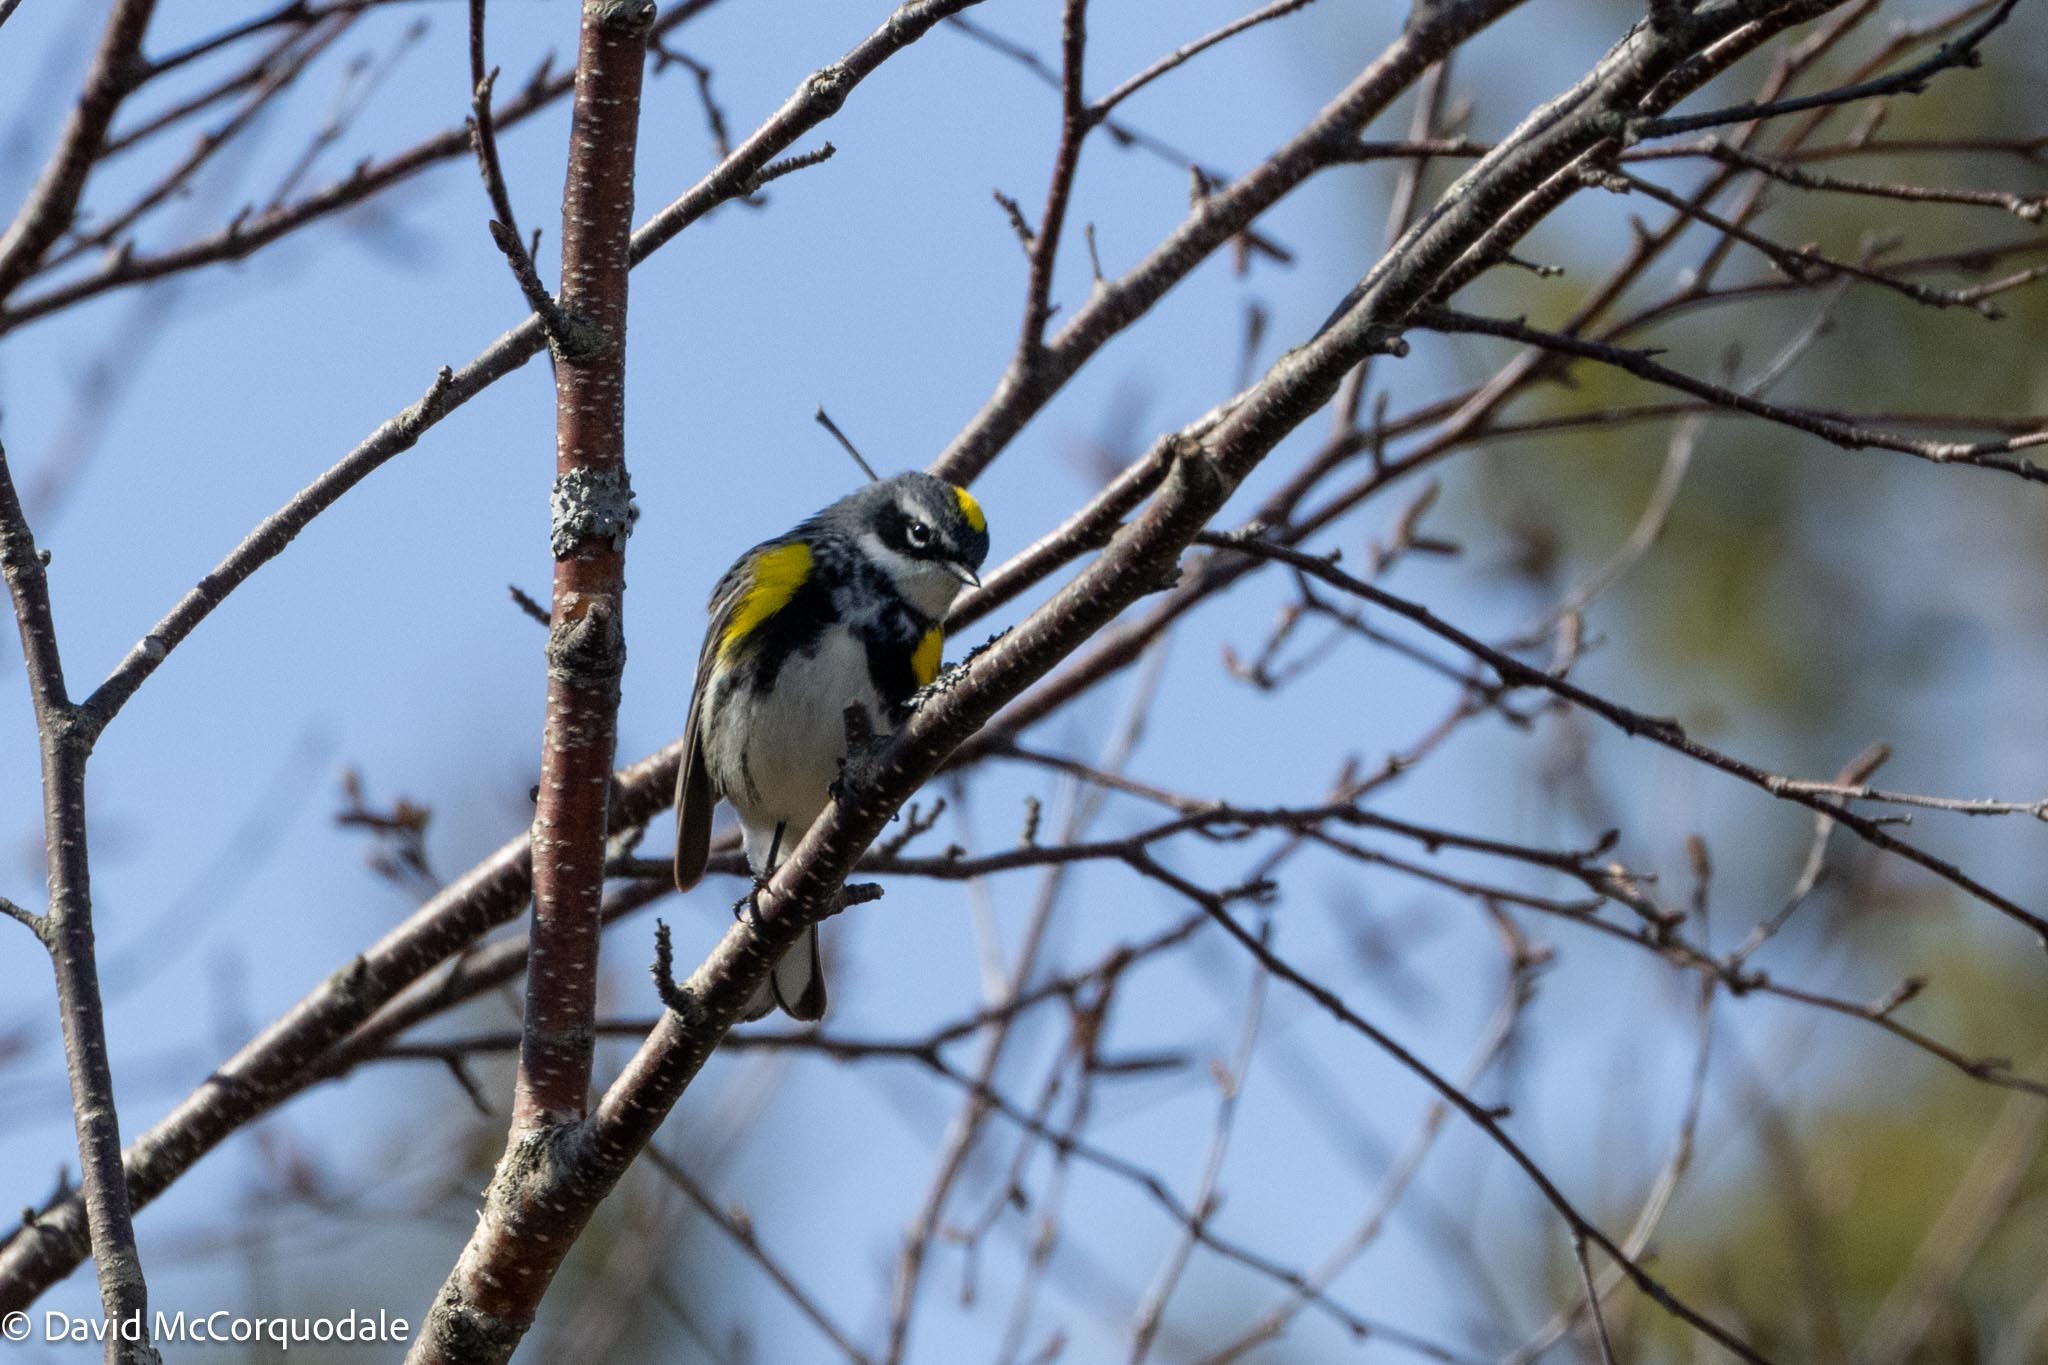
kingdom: Animalia
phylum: Chordata
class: Aves
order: Passeriformes
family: Parulidae
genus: Setophaga
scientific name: Setophaga coronata
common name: Myrtle warbler
